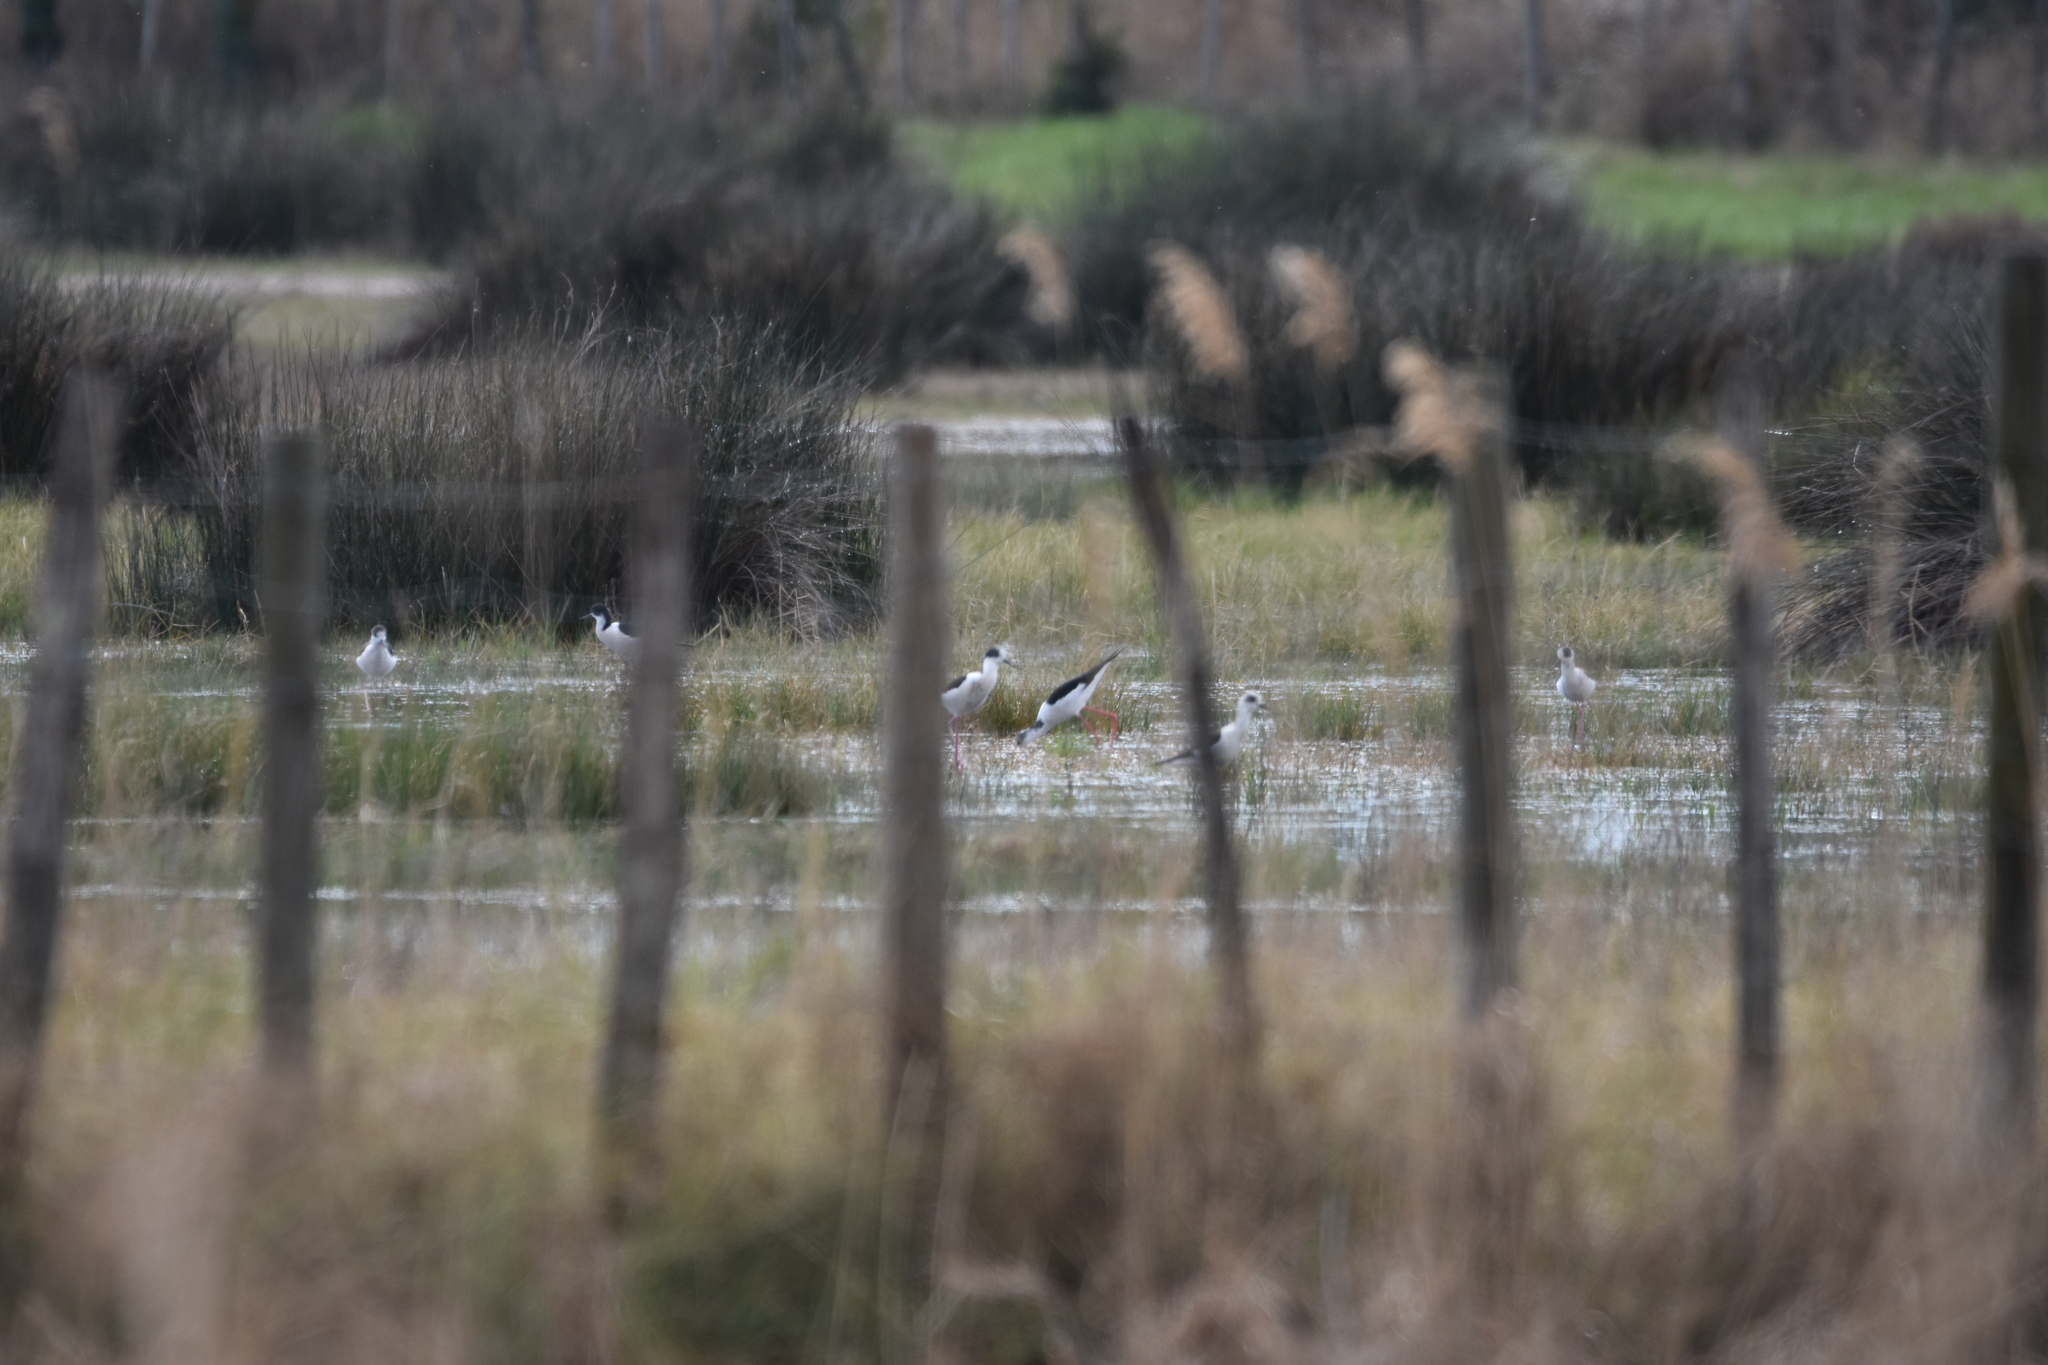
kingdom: Animalia
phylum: Chordata
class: Aves
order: Charadriiformes
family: Recurvirostridae
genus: Himantopus
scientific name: Himantopus himantopus
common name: Black-winged stilt
